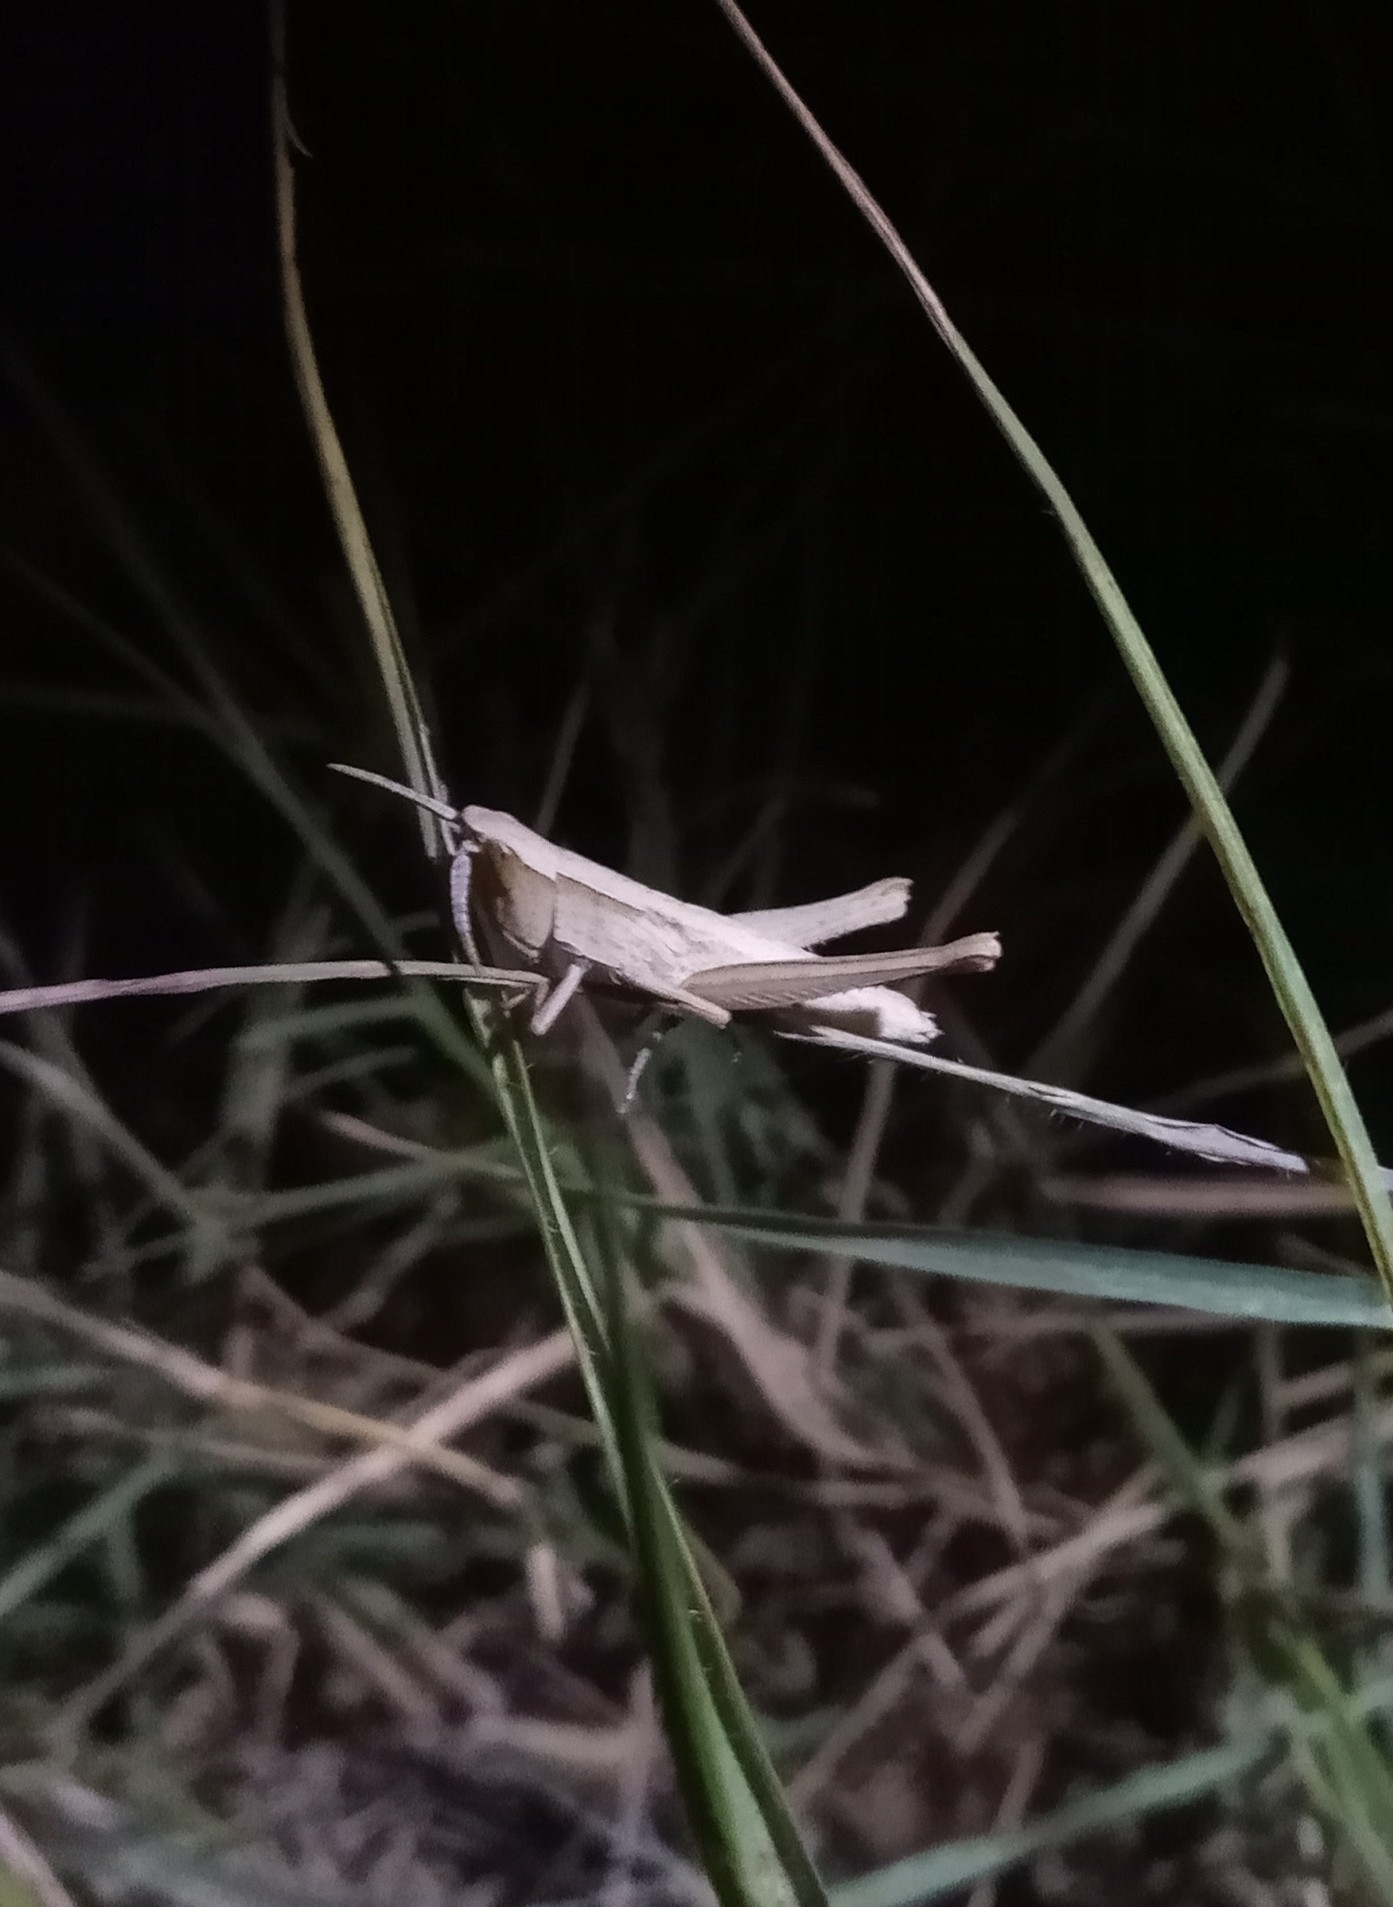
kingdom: Animalia
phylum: Arthropoda
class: Insecta
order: Orthoptera
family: Acrididae
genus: Metaleptea
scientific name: Metaleptea adspersa
